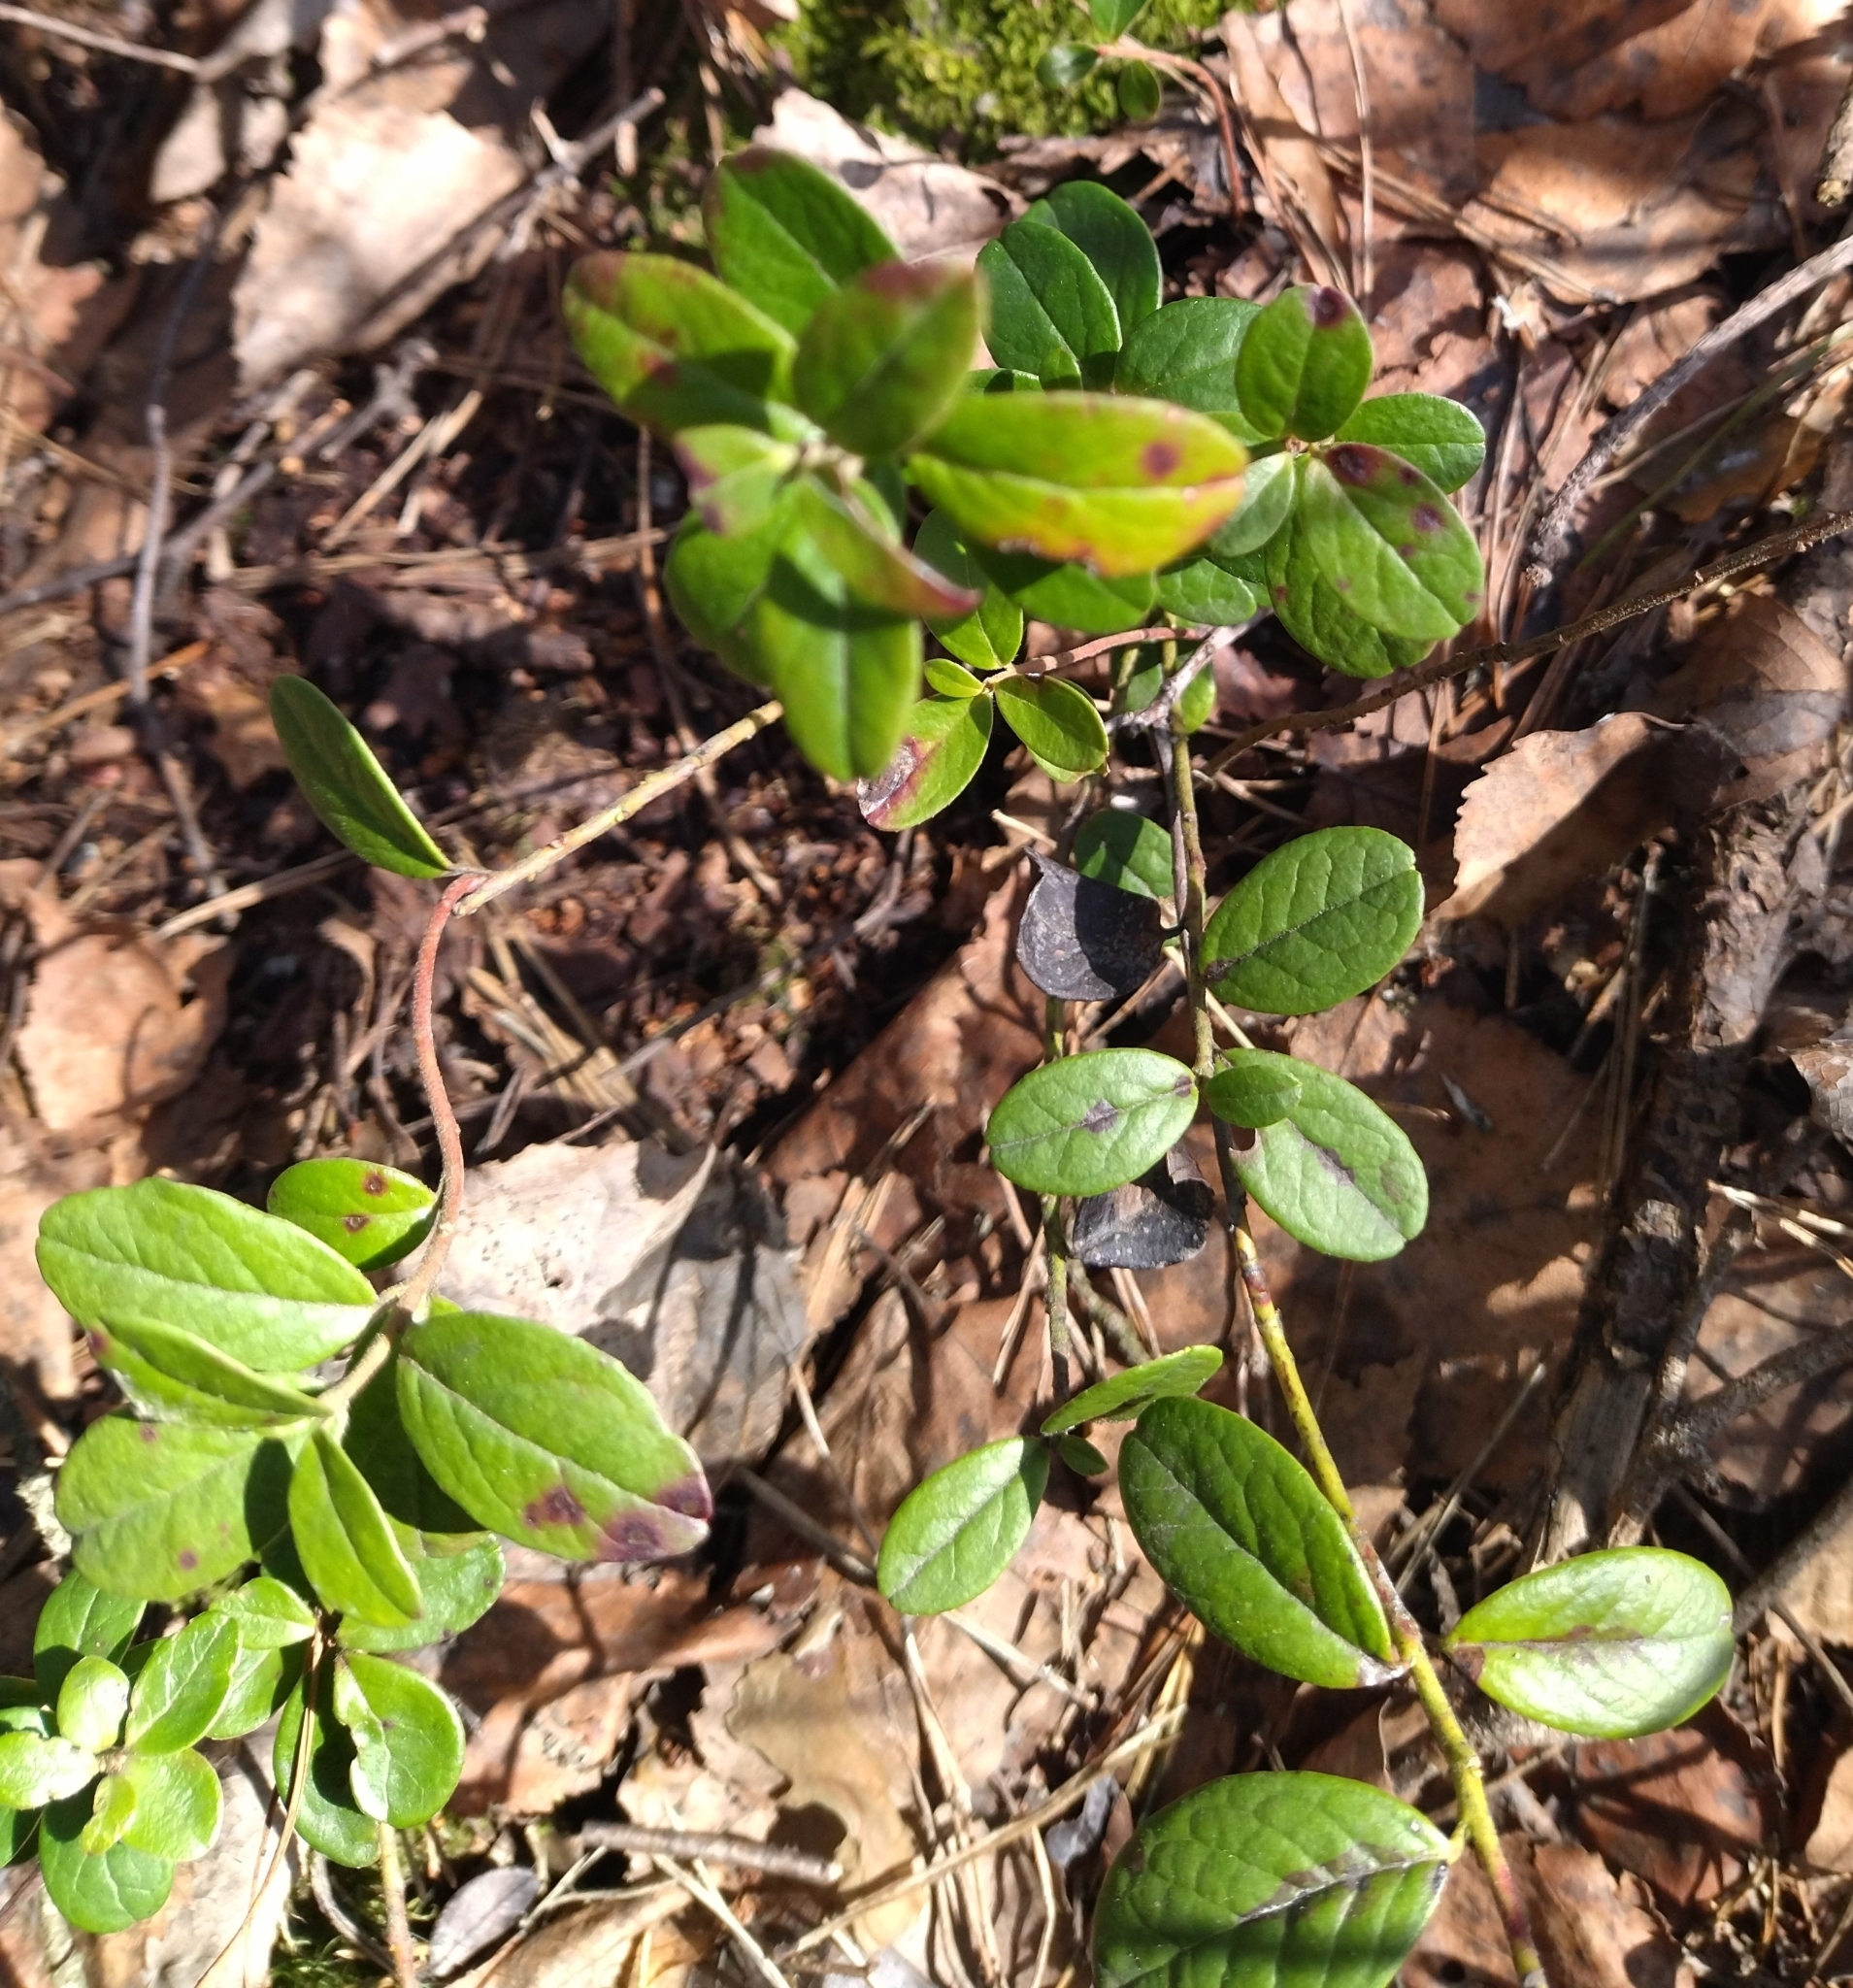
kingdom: Plantae
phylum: Tracheophyta
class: Magnoliopsida
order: Ericales
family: Ericaceae
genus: Vaccinium
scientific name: Vaccinium vitis-idaea
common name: Cowberry
